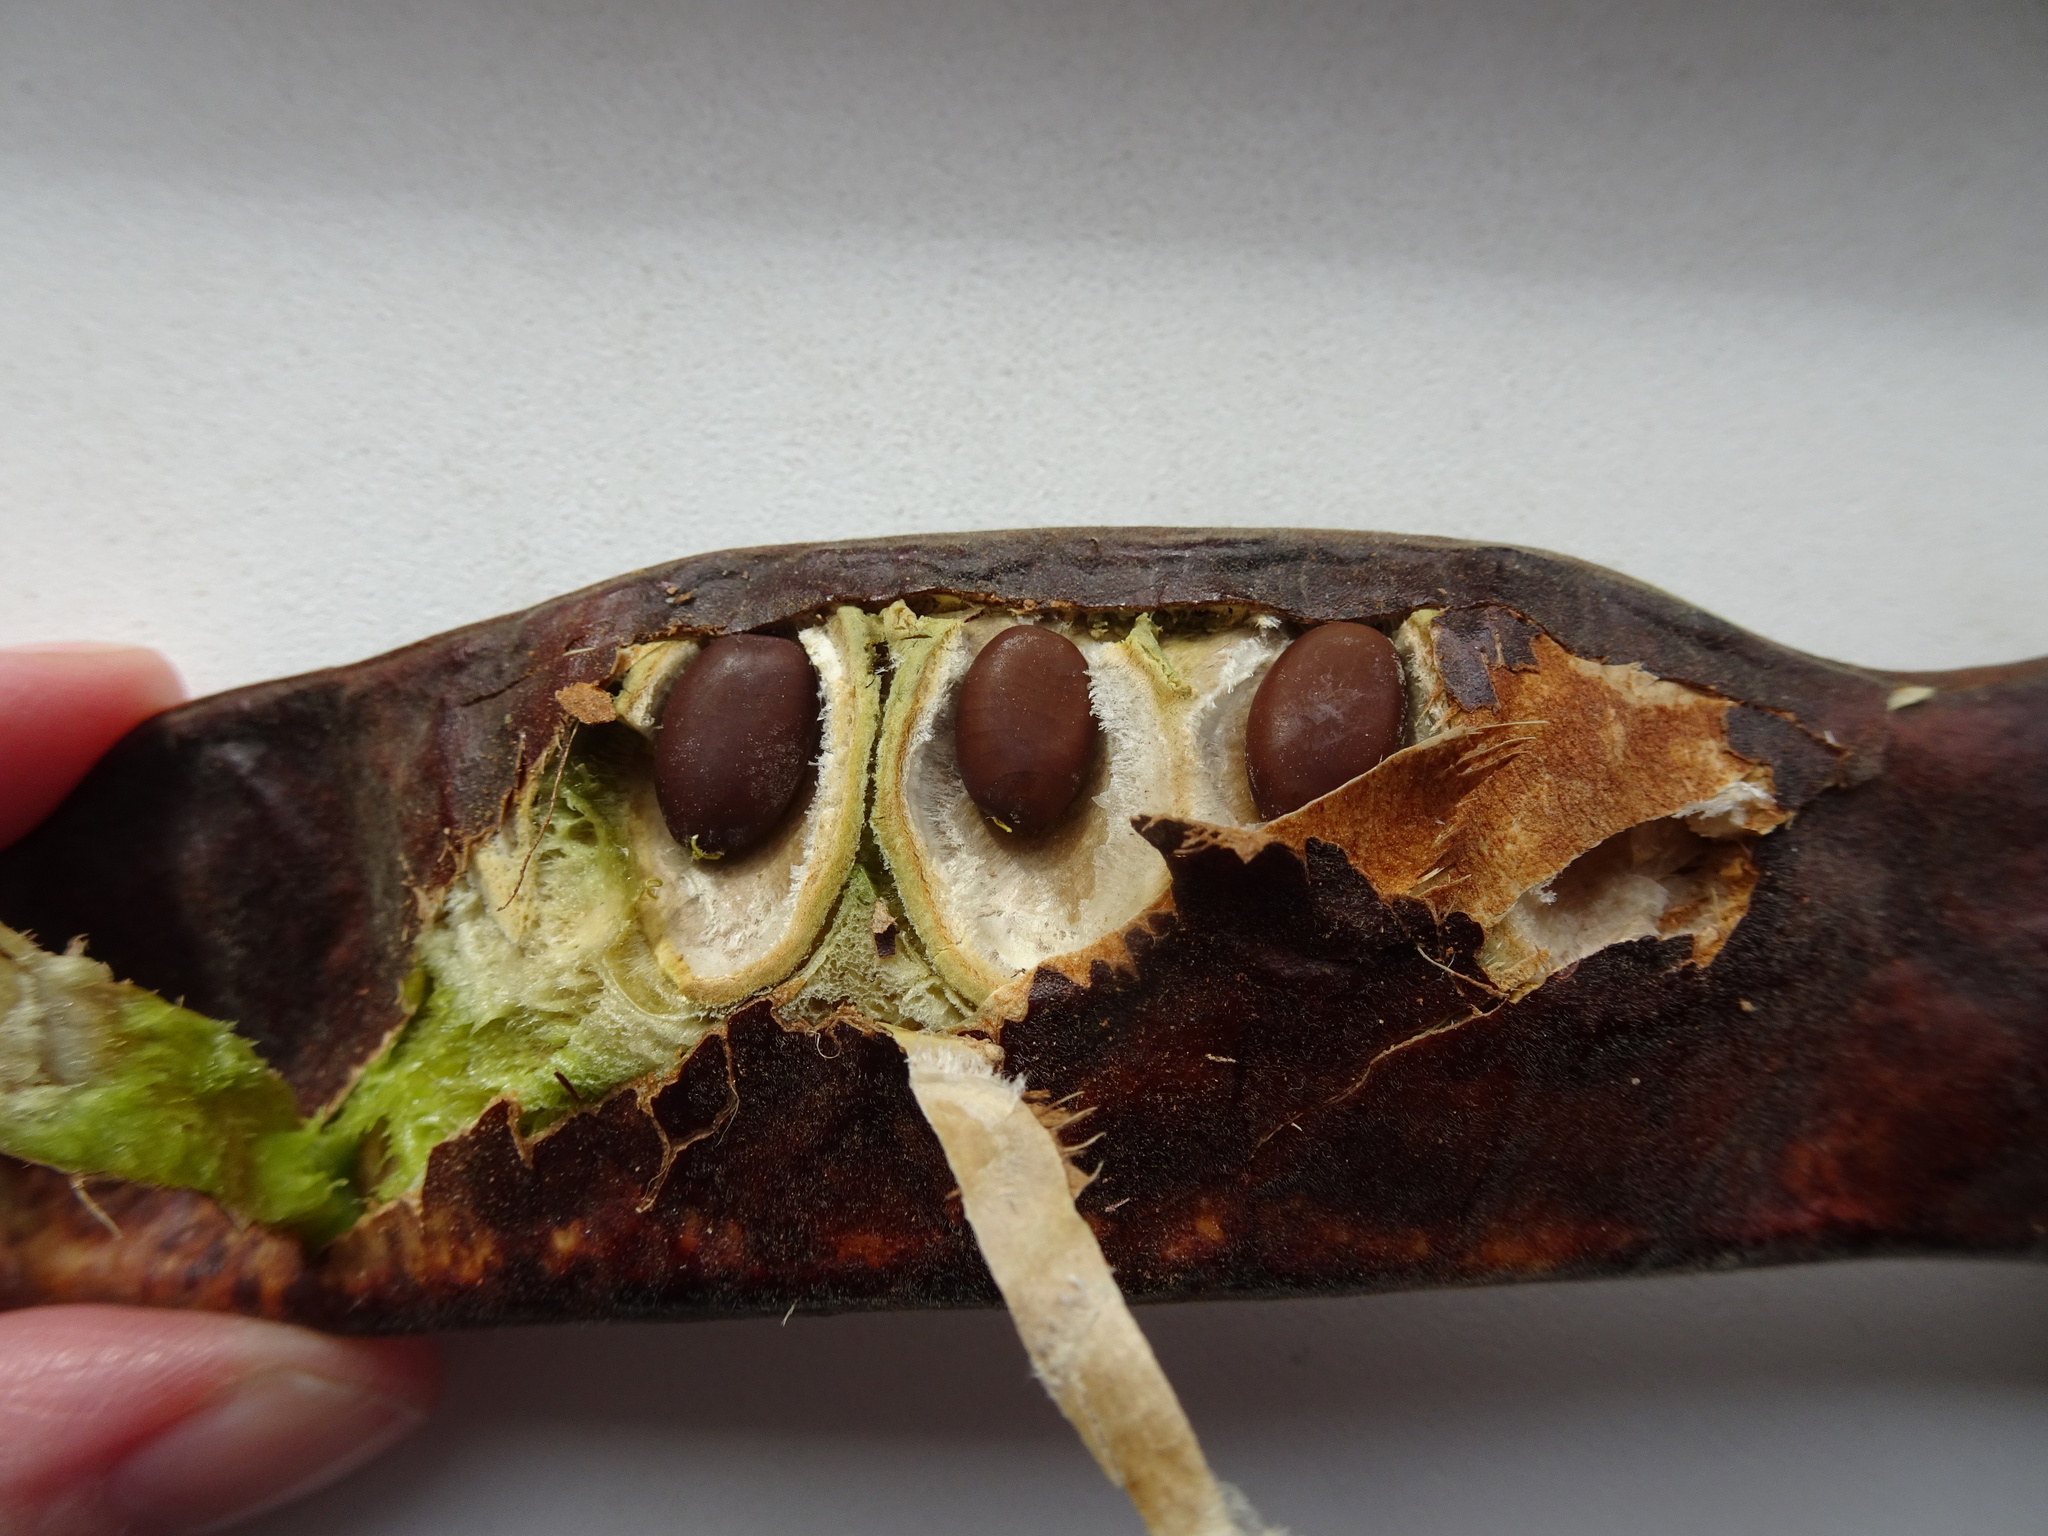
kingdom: Plantae
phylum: Tracheophyta
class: Magnoliopsida
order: Fabales
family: Fabaceae
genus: Gleditsia
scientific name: Gleditsia triacanthos
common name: Common honeylocust
